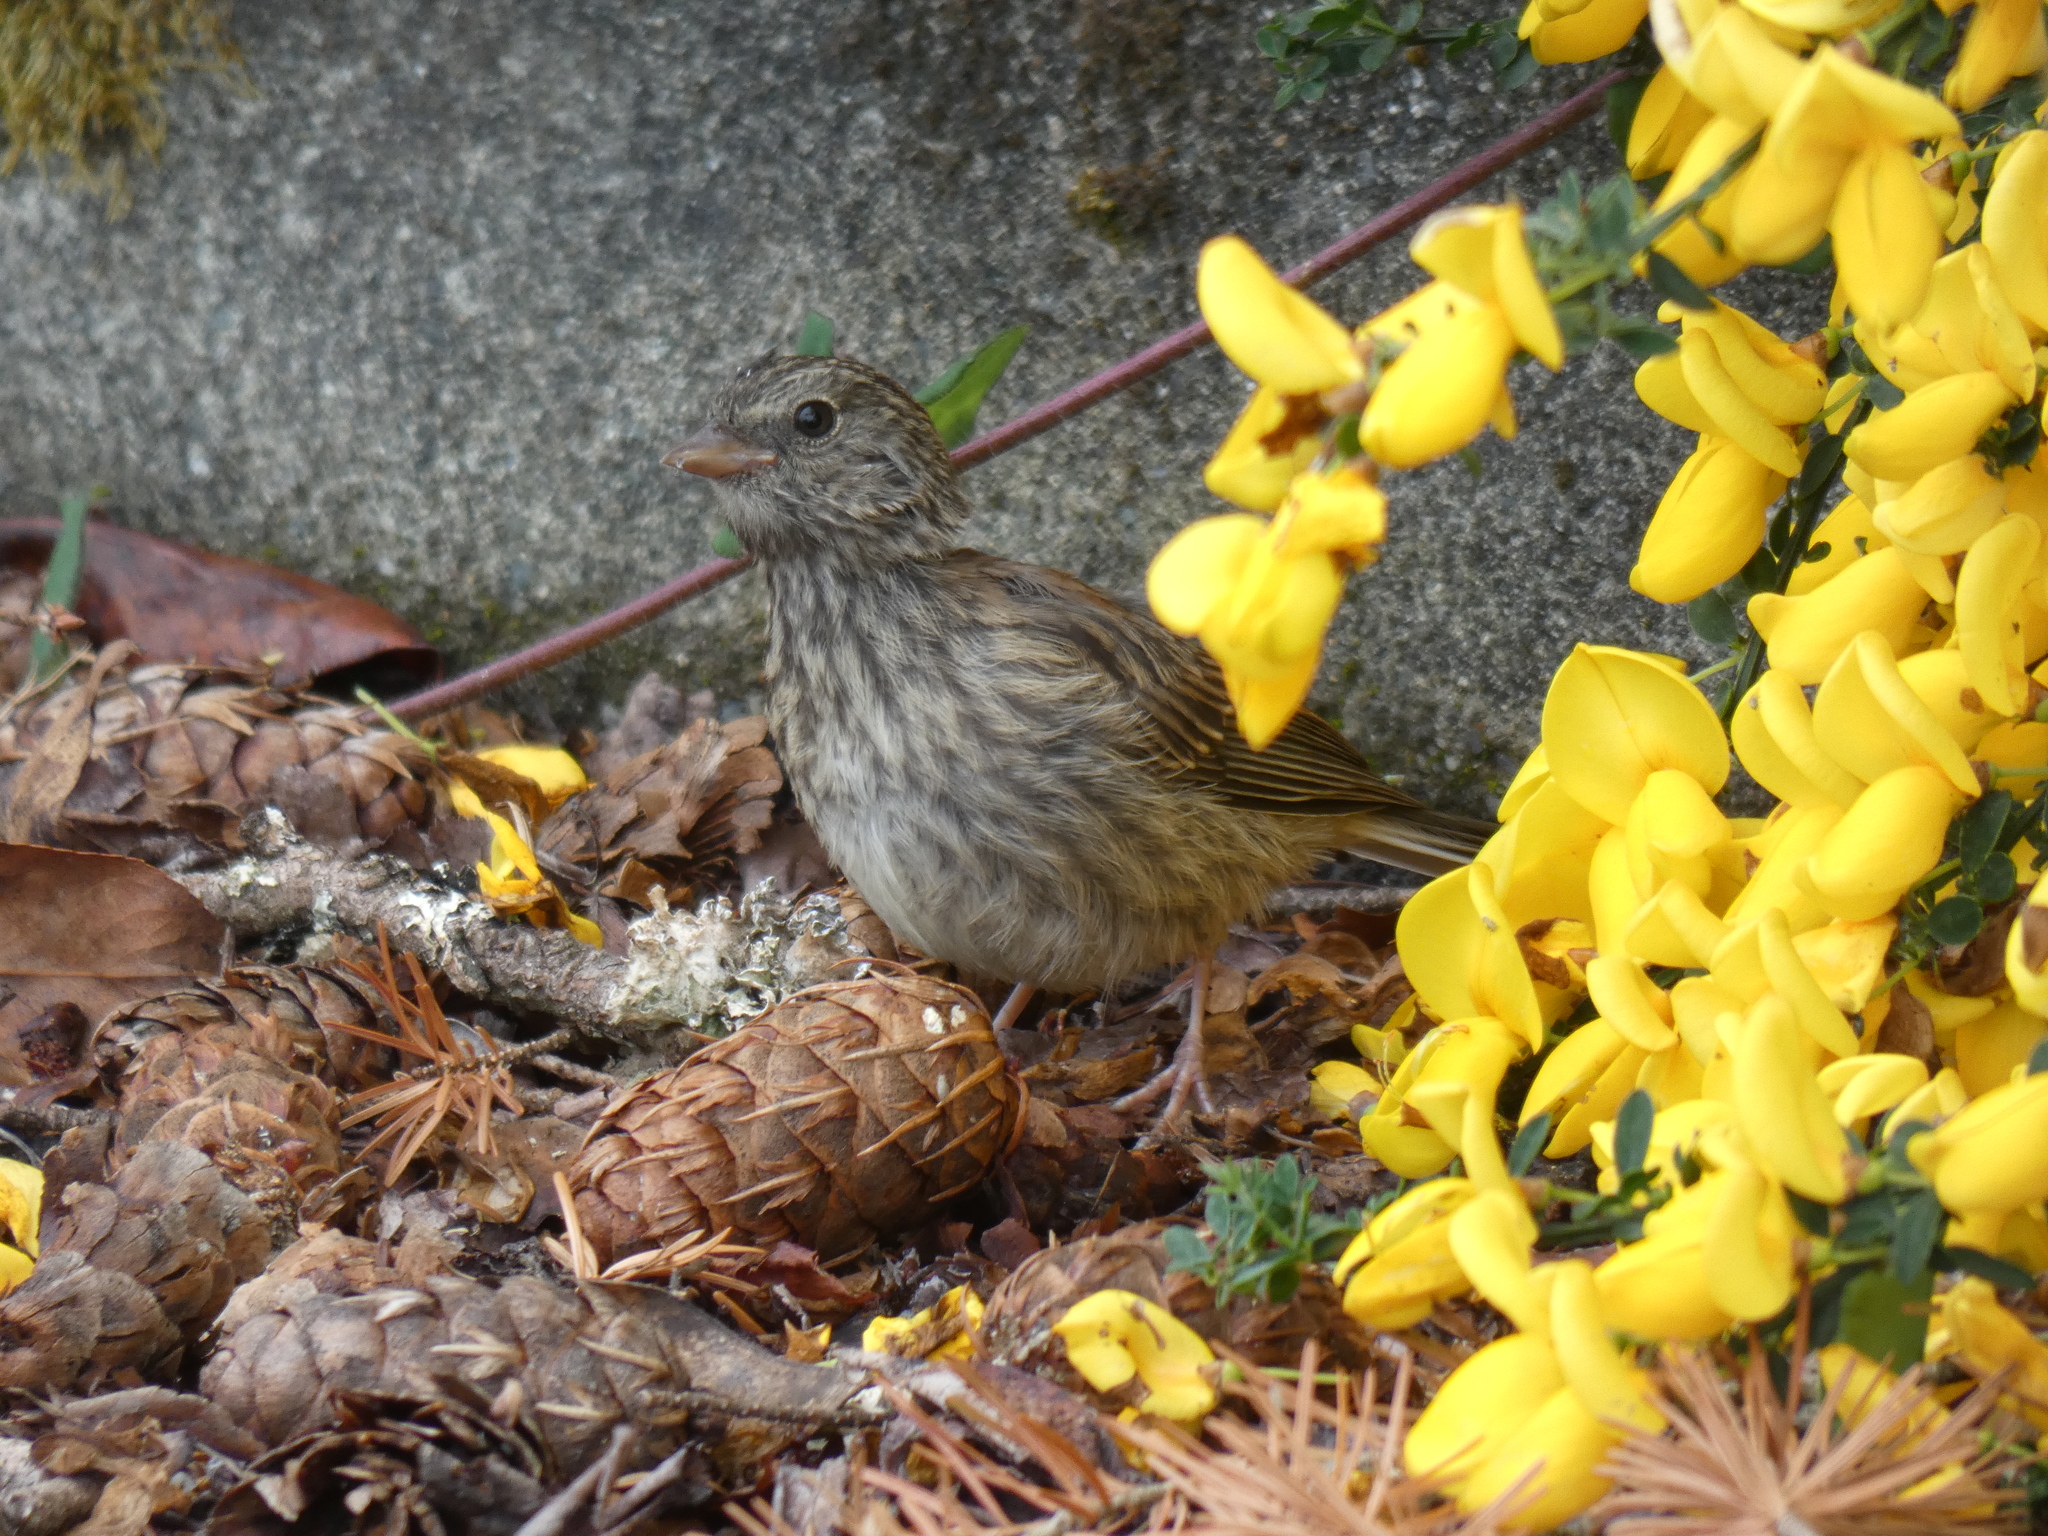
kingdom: Animalia
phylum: Chordata
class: Aves
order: Passeriformes
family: Passerellidae
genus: Junco
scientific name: Junco hyemalis
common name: Dark-eyed junco
